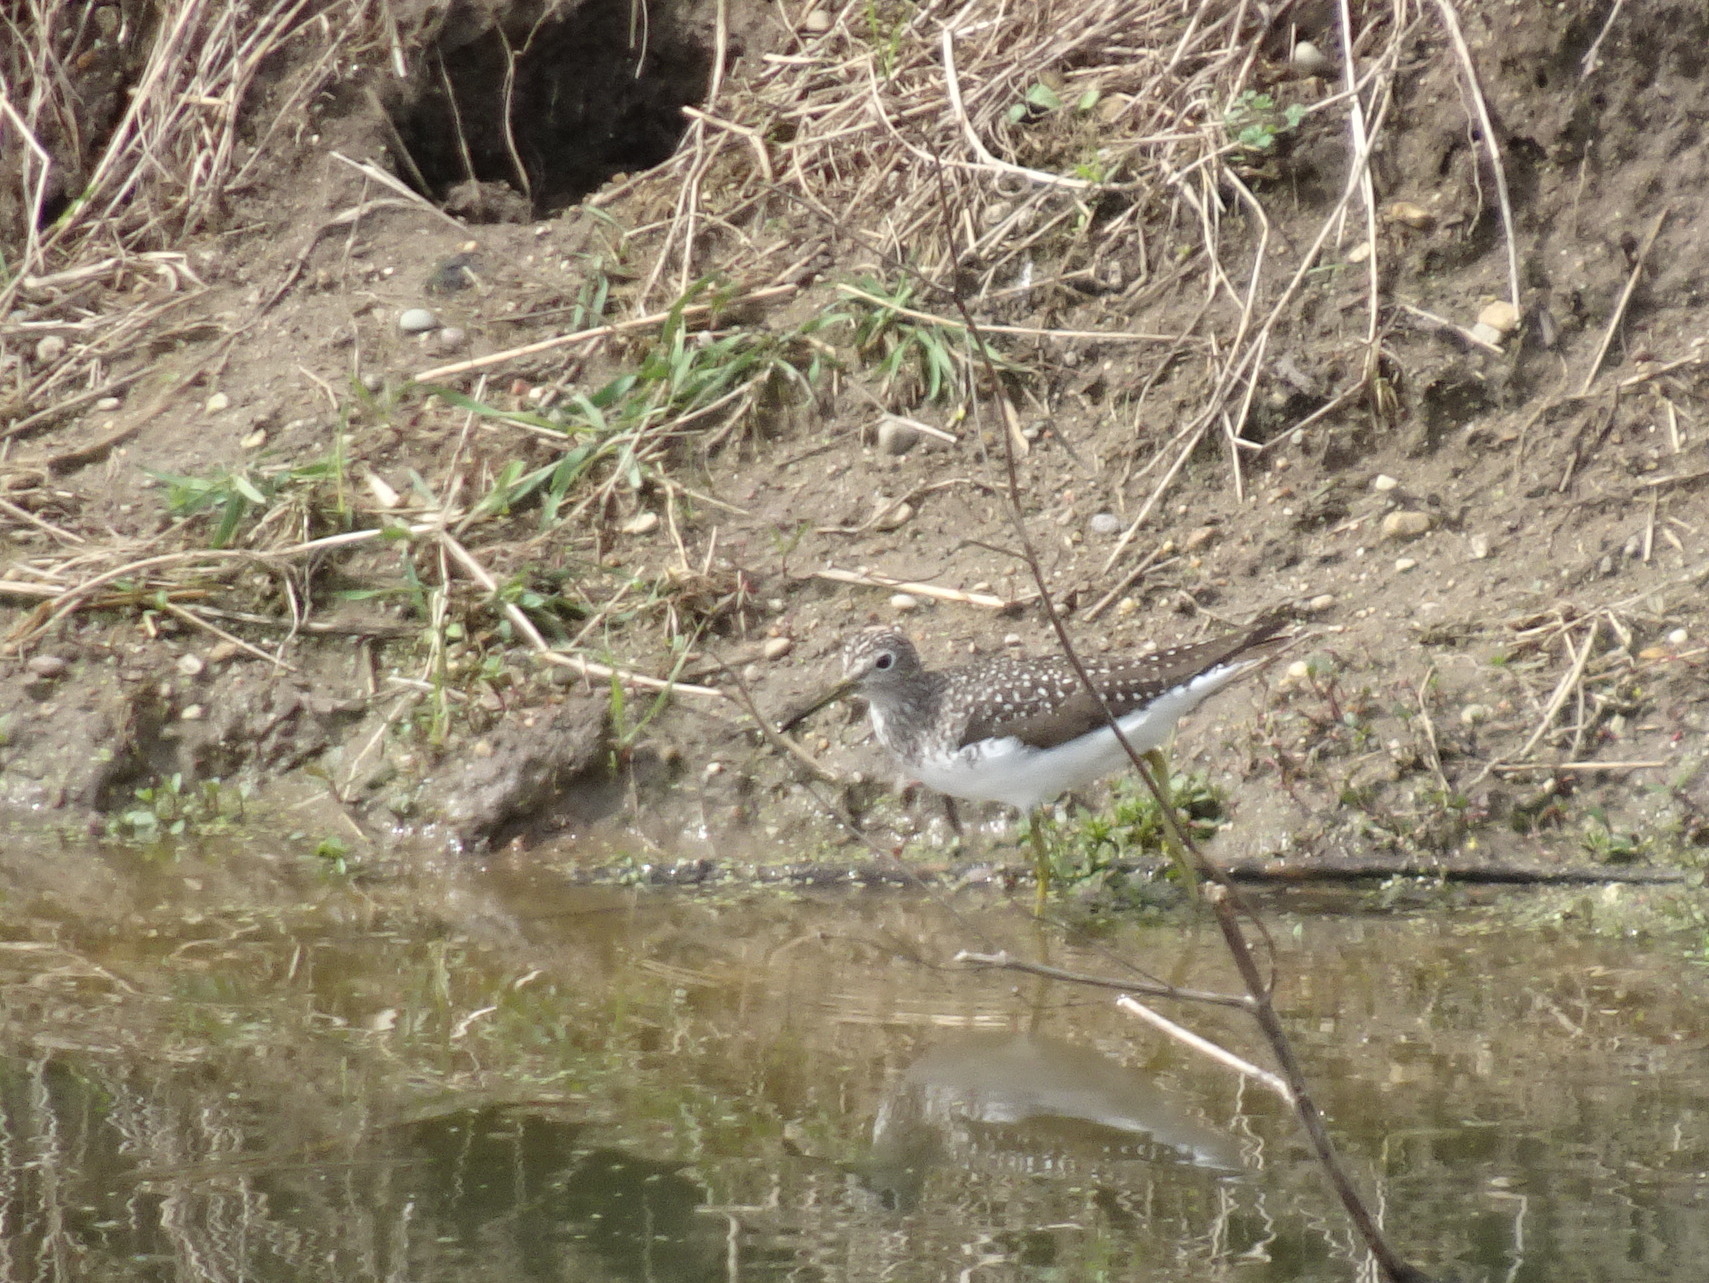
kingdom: Animalia
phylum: Chordata
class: Aves
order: Charadriiformes
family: Scolopacidae
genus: Tringa
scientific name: Tringa solitaria
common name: Solitary sandpiper
